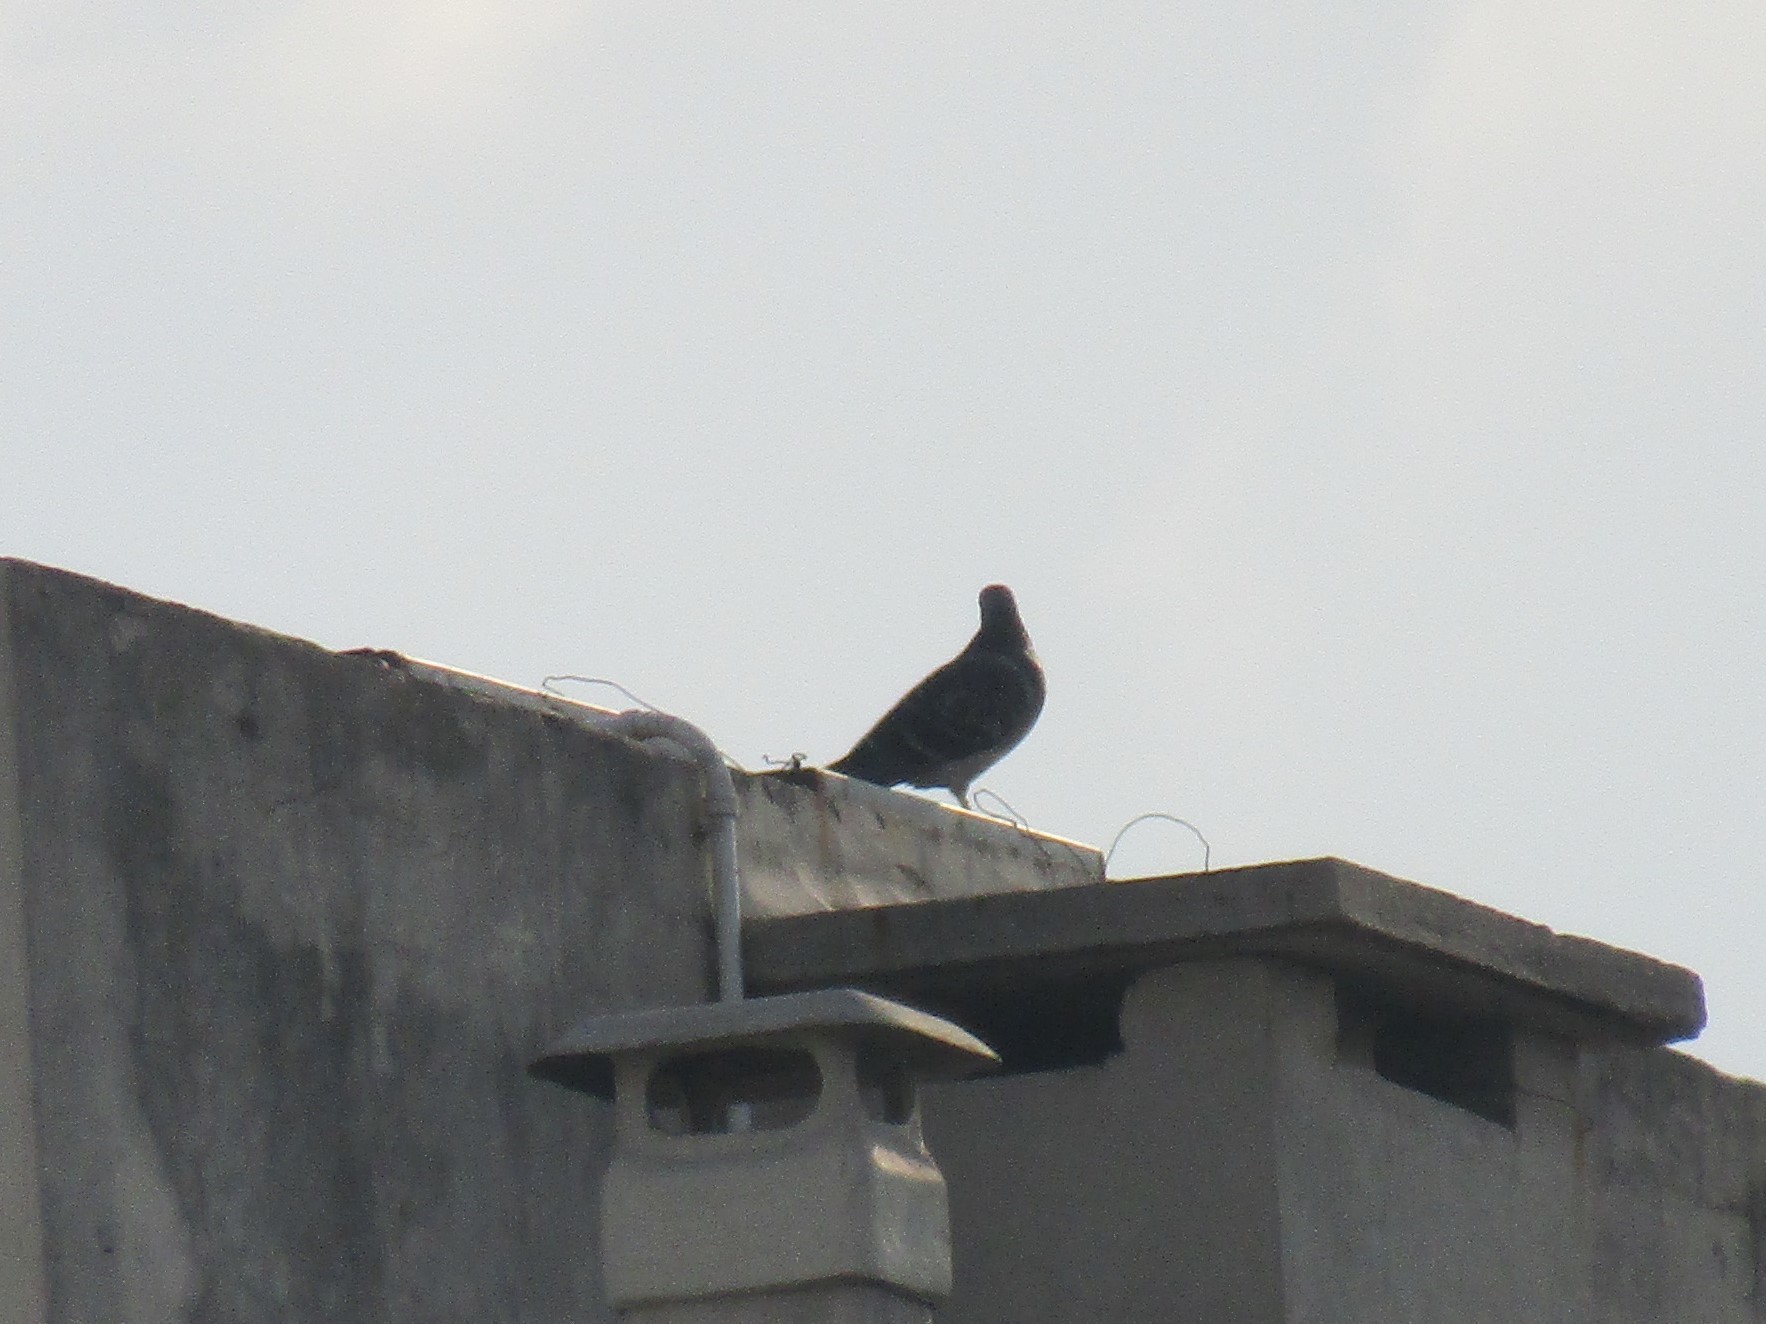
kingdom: Animalia
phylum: Chordata
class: Aves
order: Columbiformes
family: Columbidae
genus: Columba
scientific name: Columba livia
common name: Rock pigeon
